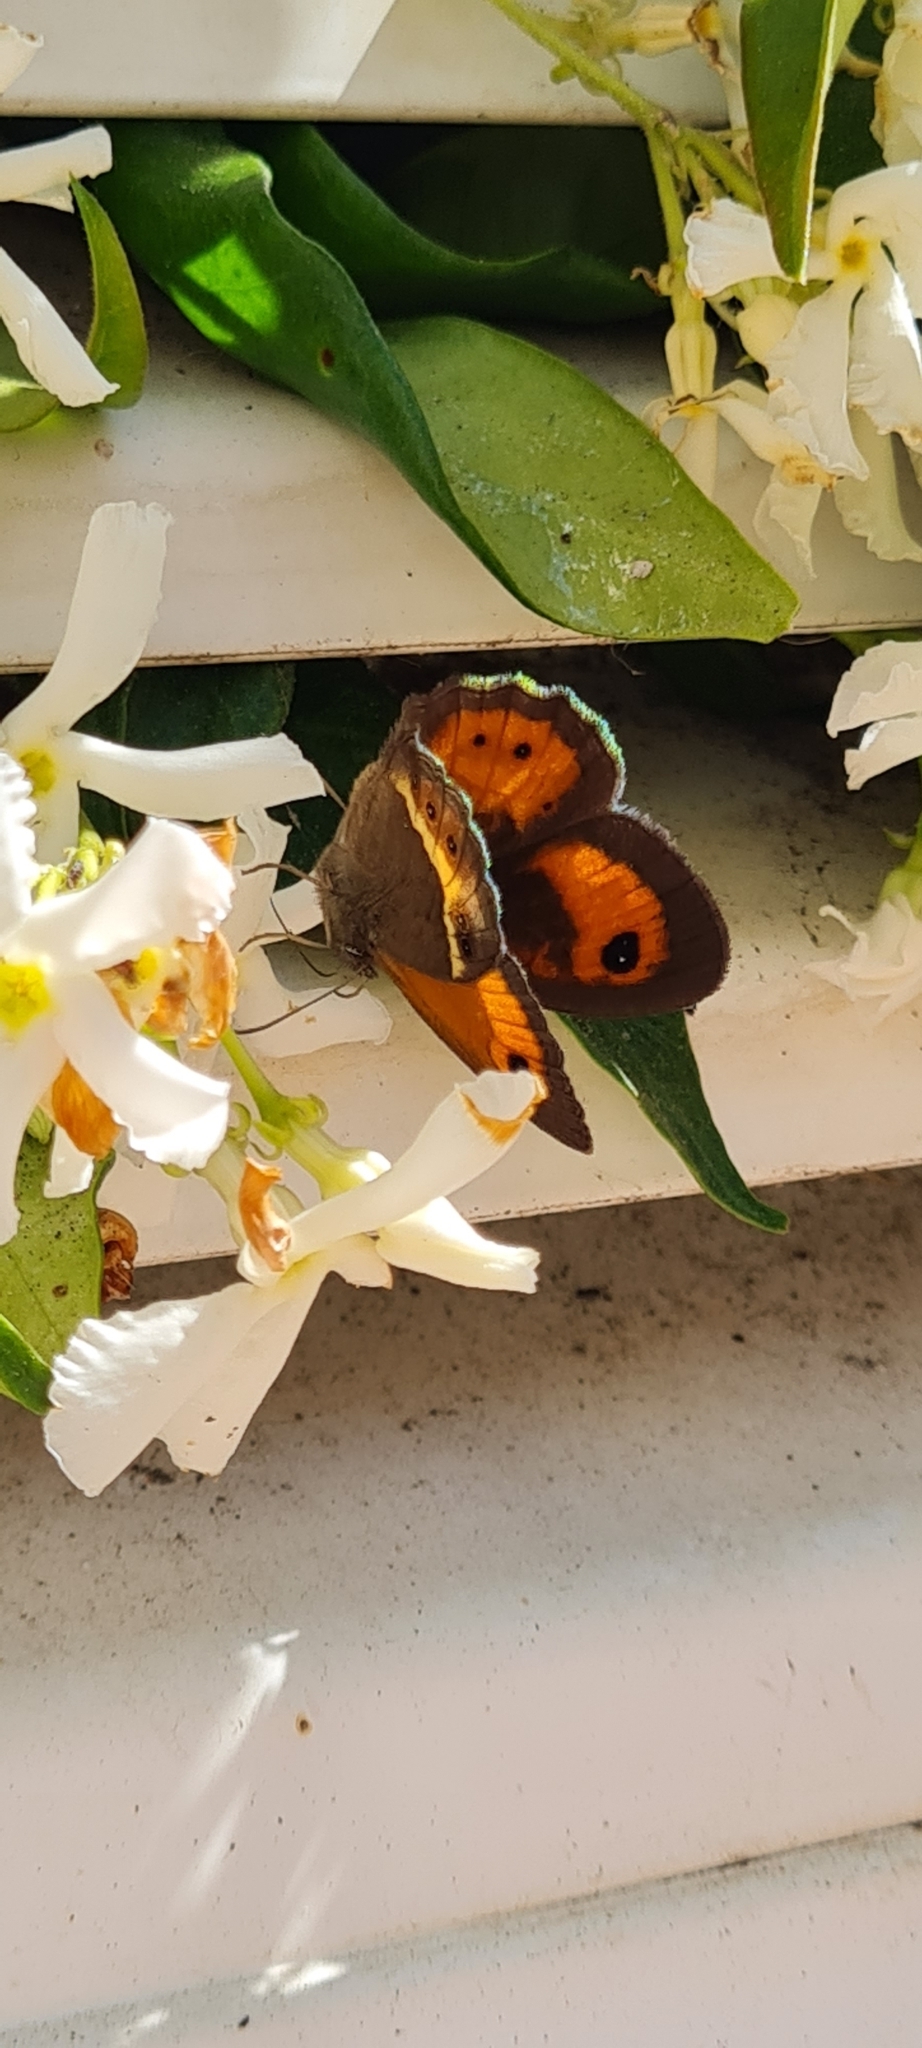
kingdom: Animalia
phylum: Arthropoda
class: Insecta
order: Lepidoptera
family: Nymphalidae
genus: Pyronia
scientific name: Pyronia bathseba
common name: Spanish gatekeeper
